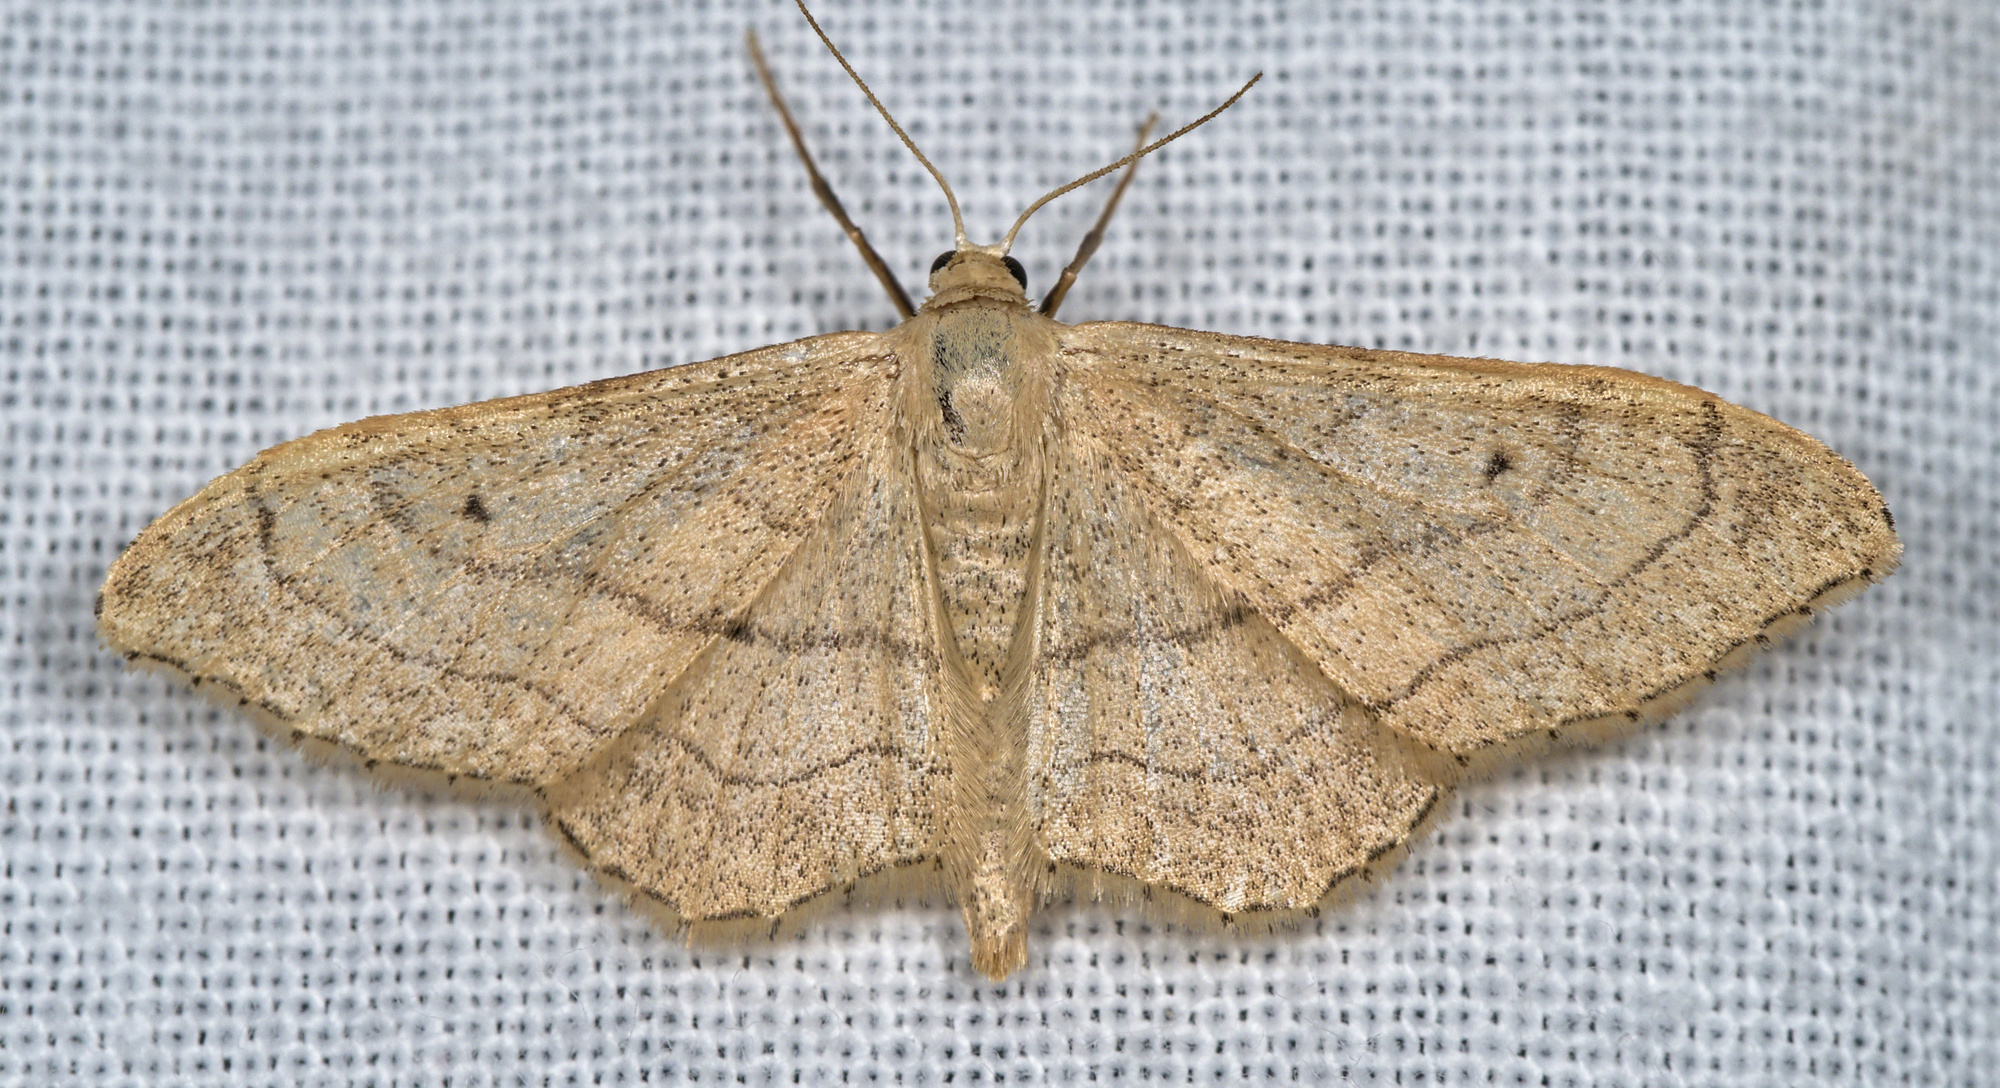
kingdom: Animalia
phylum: Arthropoda
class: Insecta
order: Lepidoptera
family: Geometridae
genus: Idaea
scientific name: Idaea aversata
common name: Riband wave
